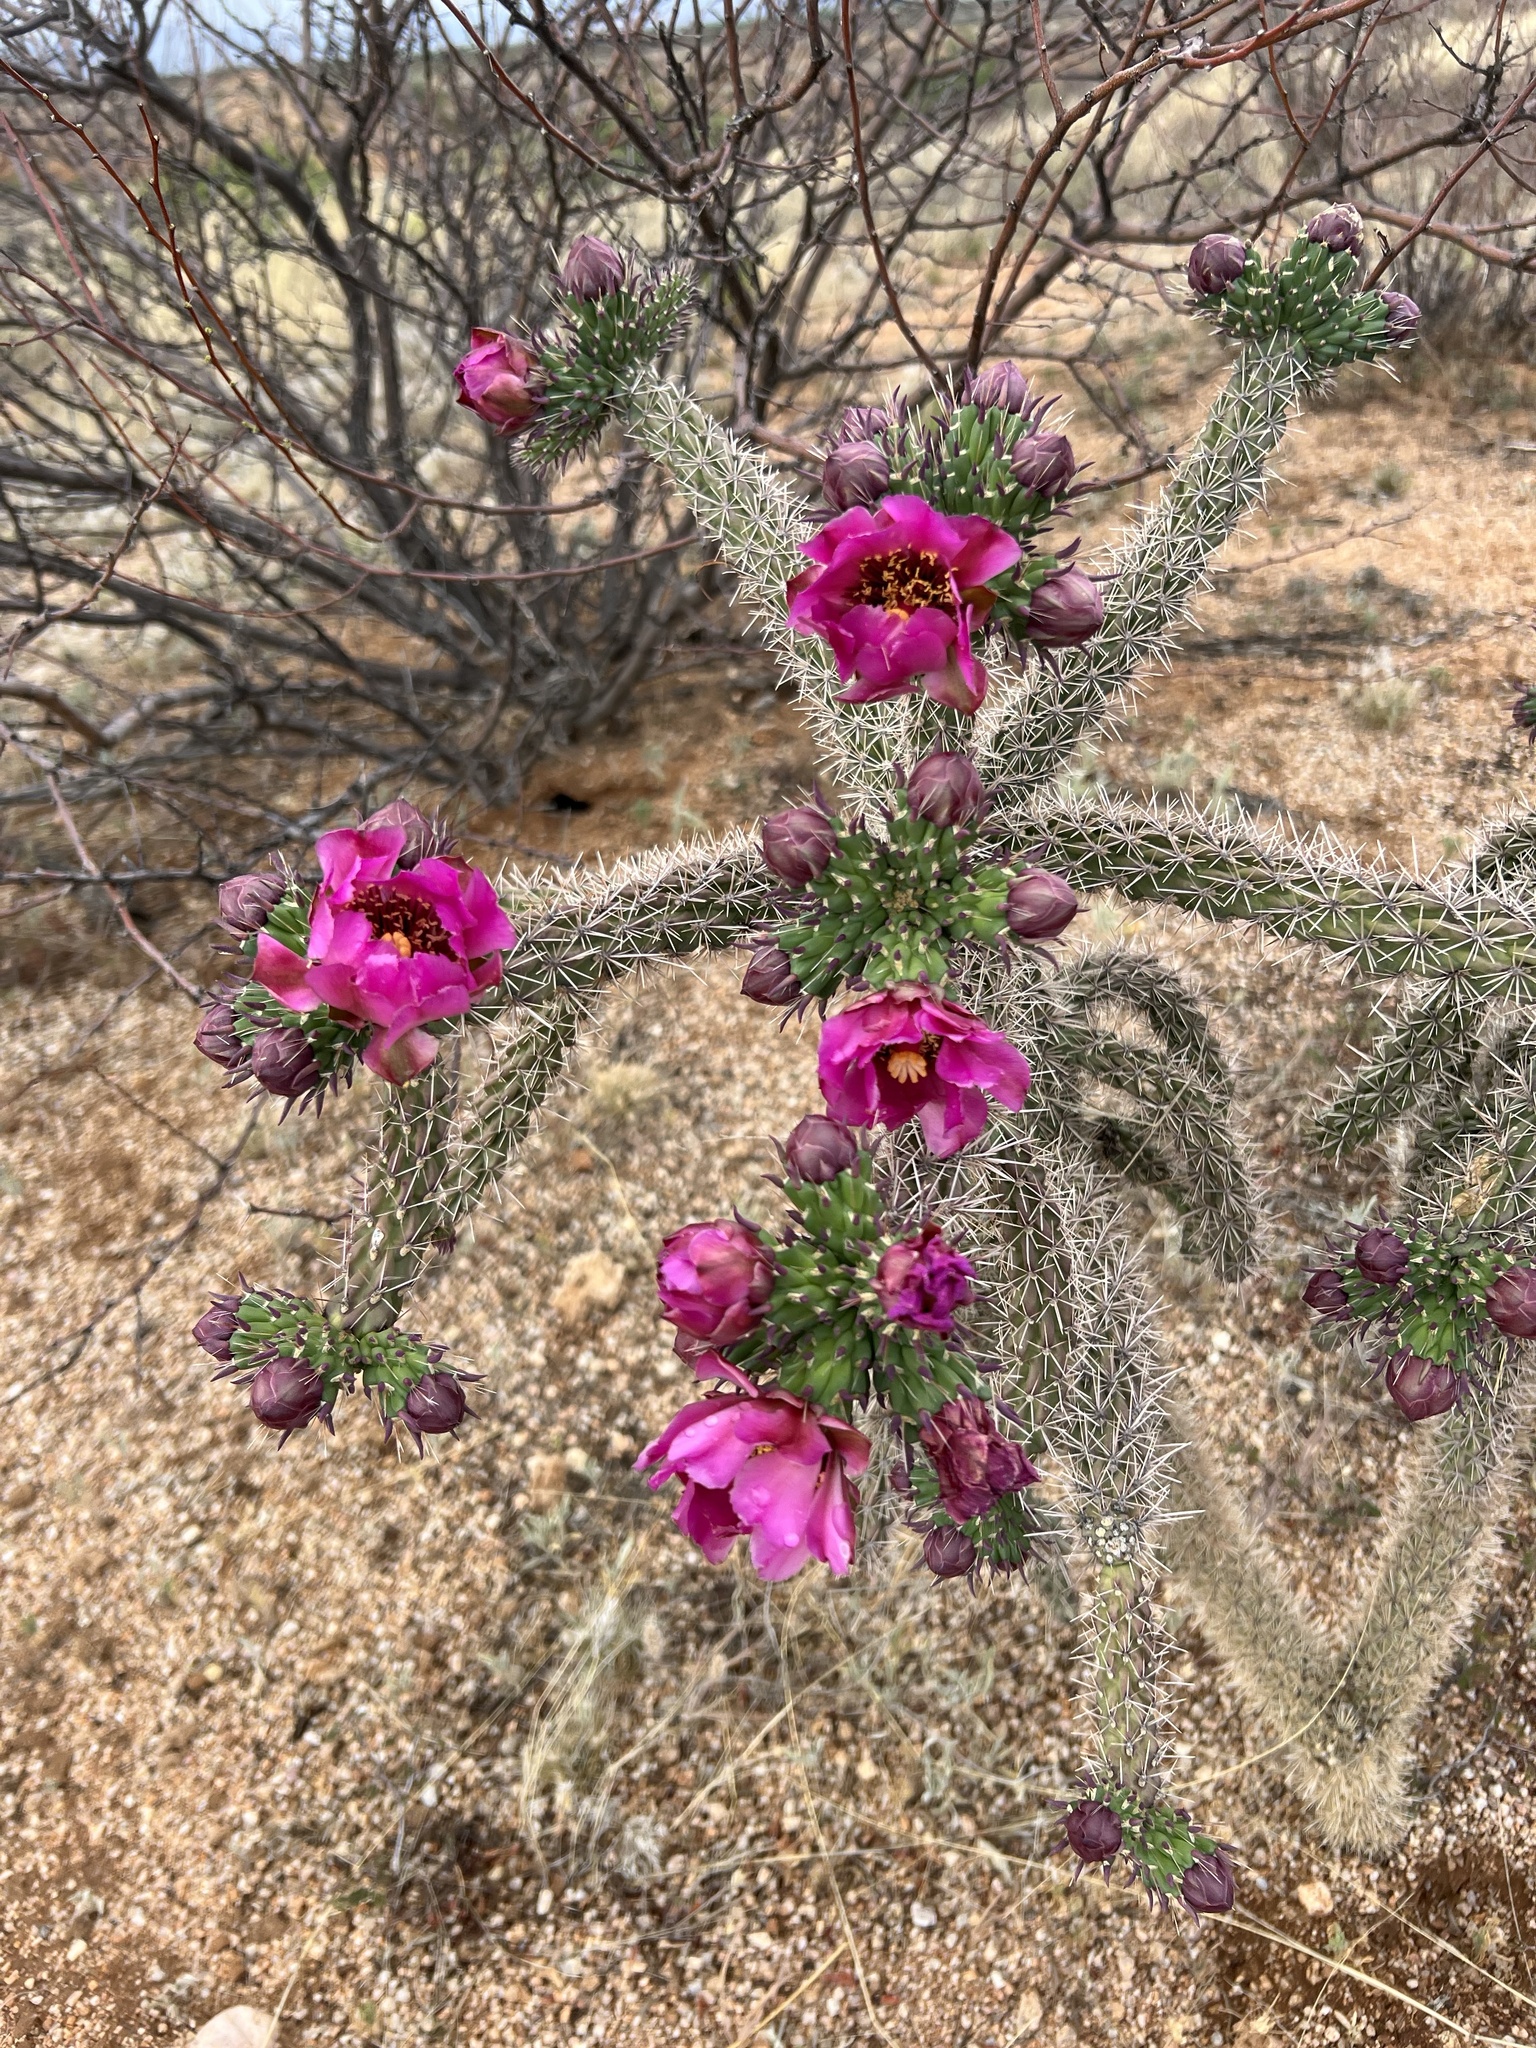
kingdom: Plantae
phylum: Tracheophyta
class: Magnoliopsida
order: Caryophyllales
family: Cactaceae
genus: Cylindropuntia
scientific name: Cylindropuntia imbricata
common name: Candelabrum cactus
